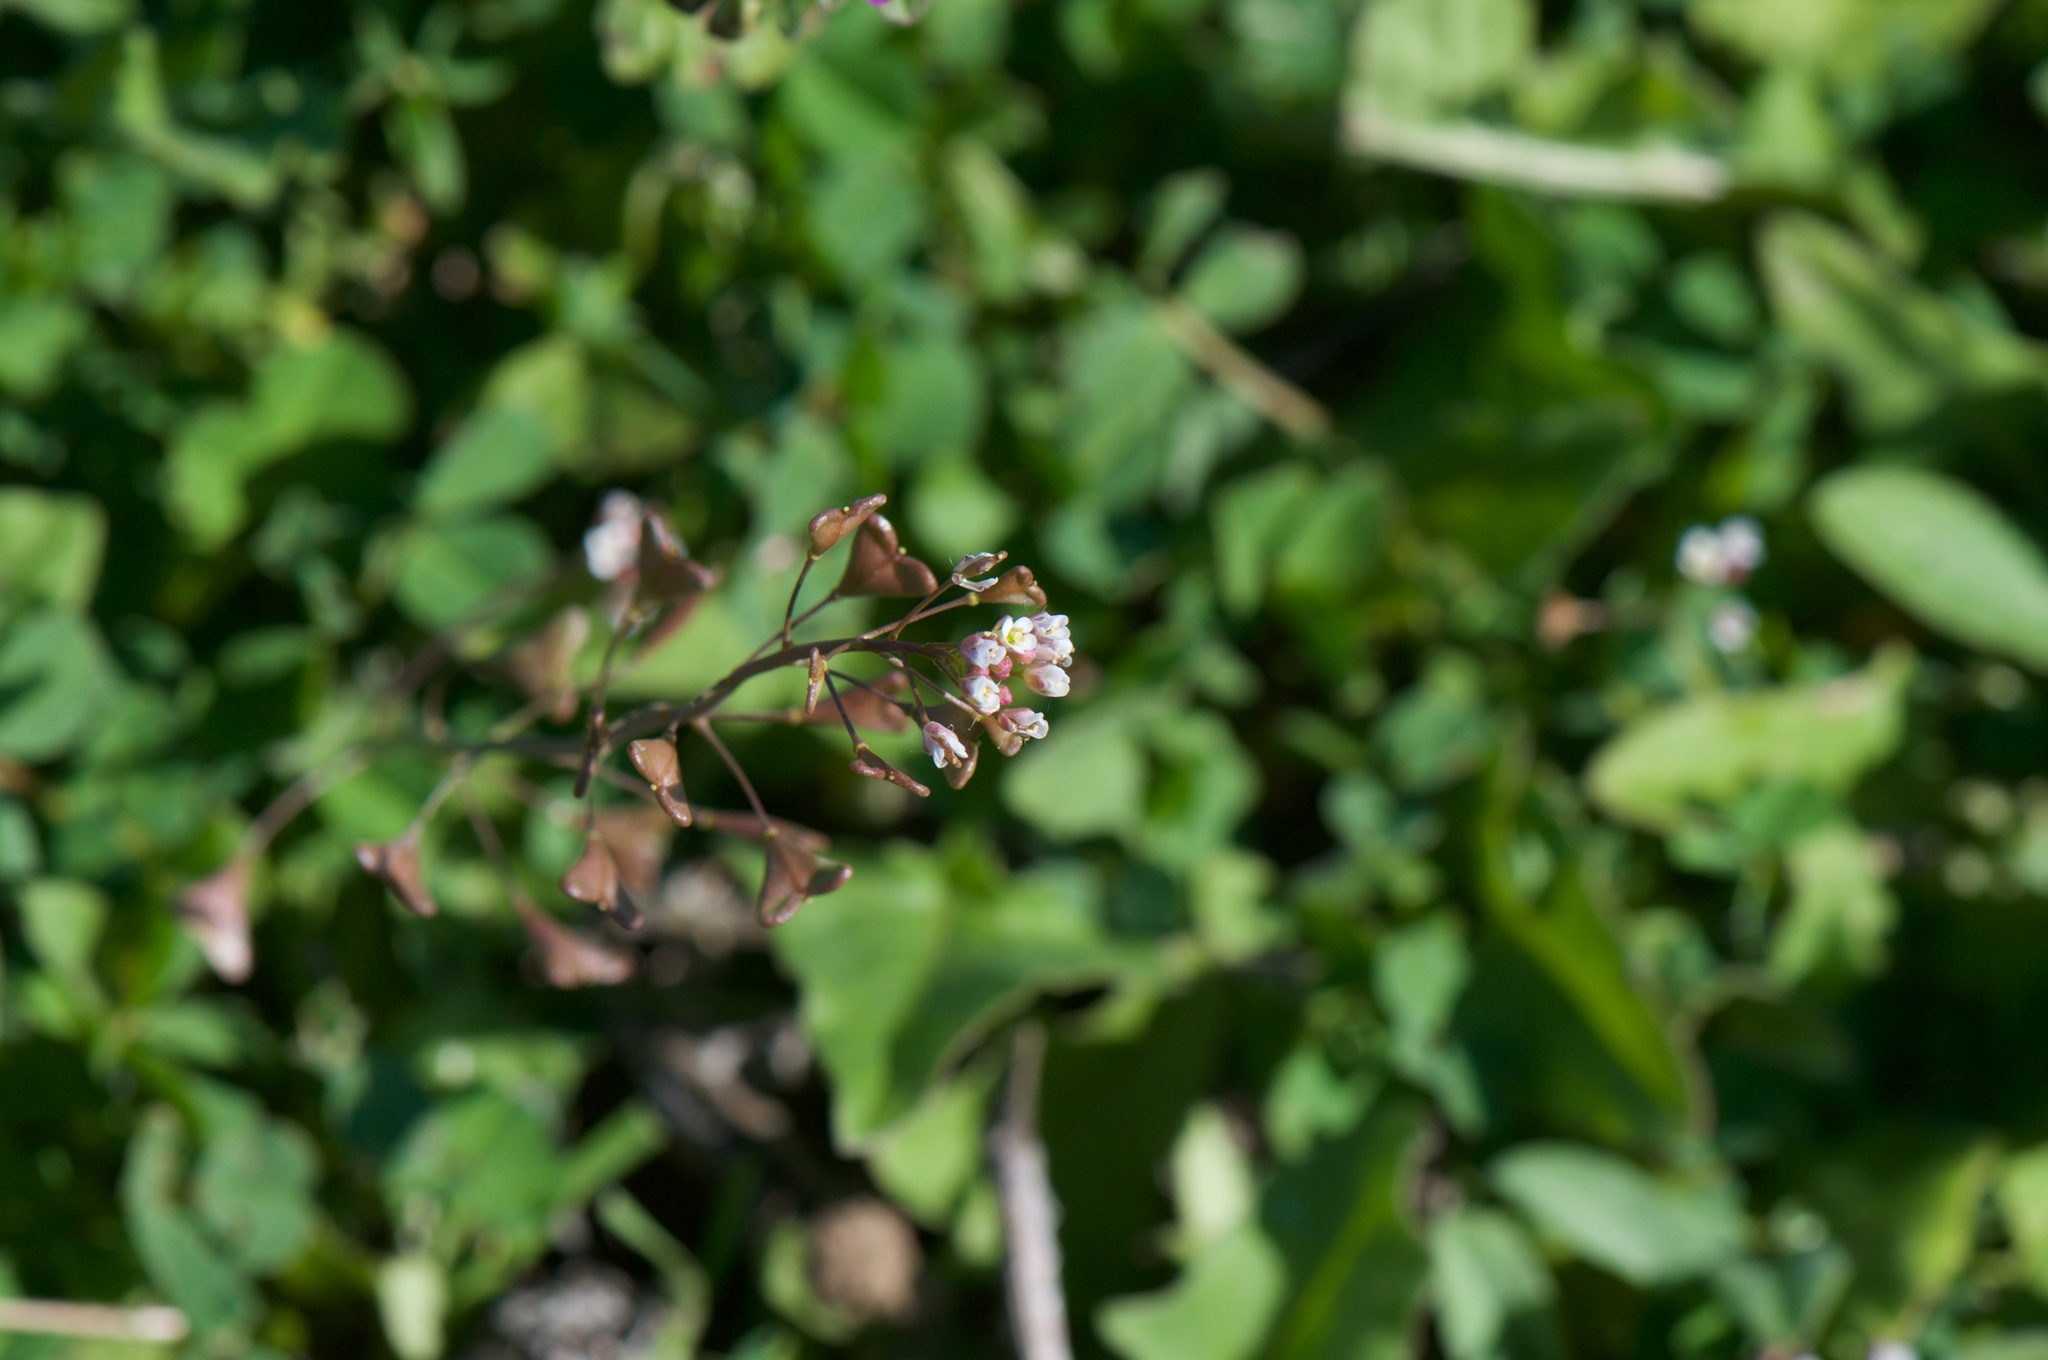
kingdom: Plantae
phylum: Tracheophyta
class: Magnoliopsida
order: Brassicales
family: Brassicaceae
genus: Capsella
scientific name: Capsella bursa-pastoris
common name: Shepherd's purse
